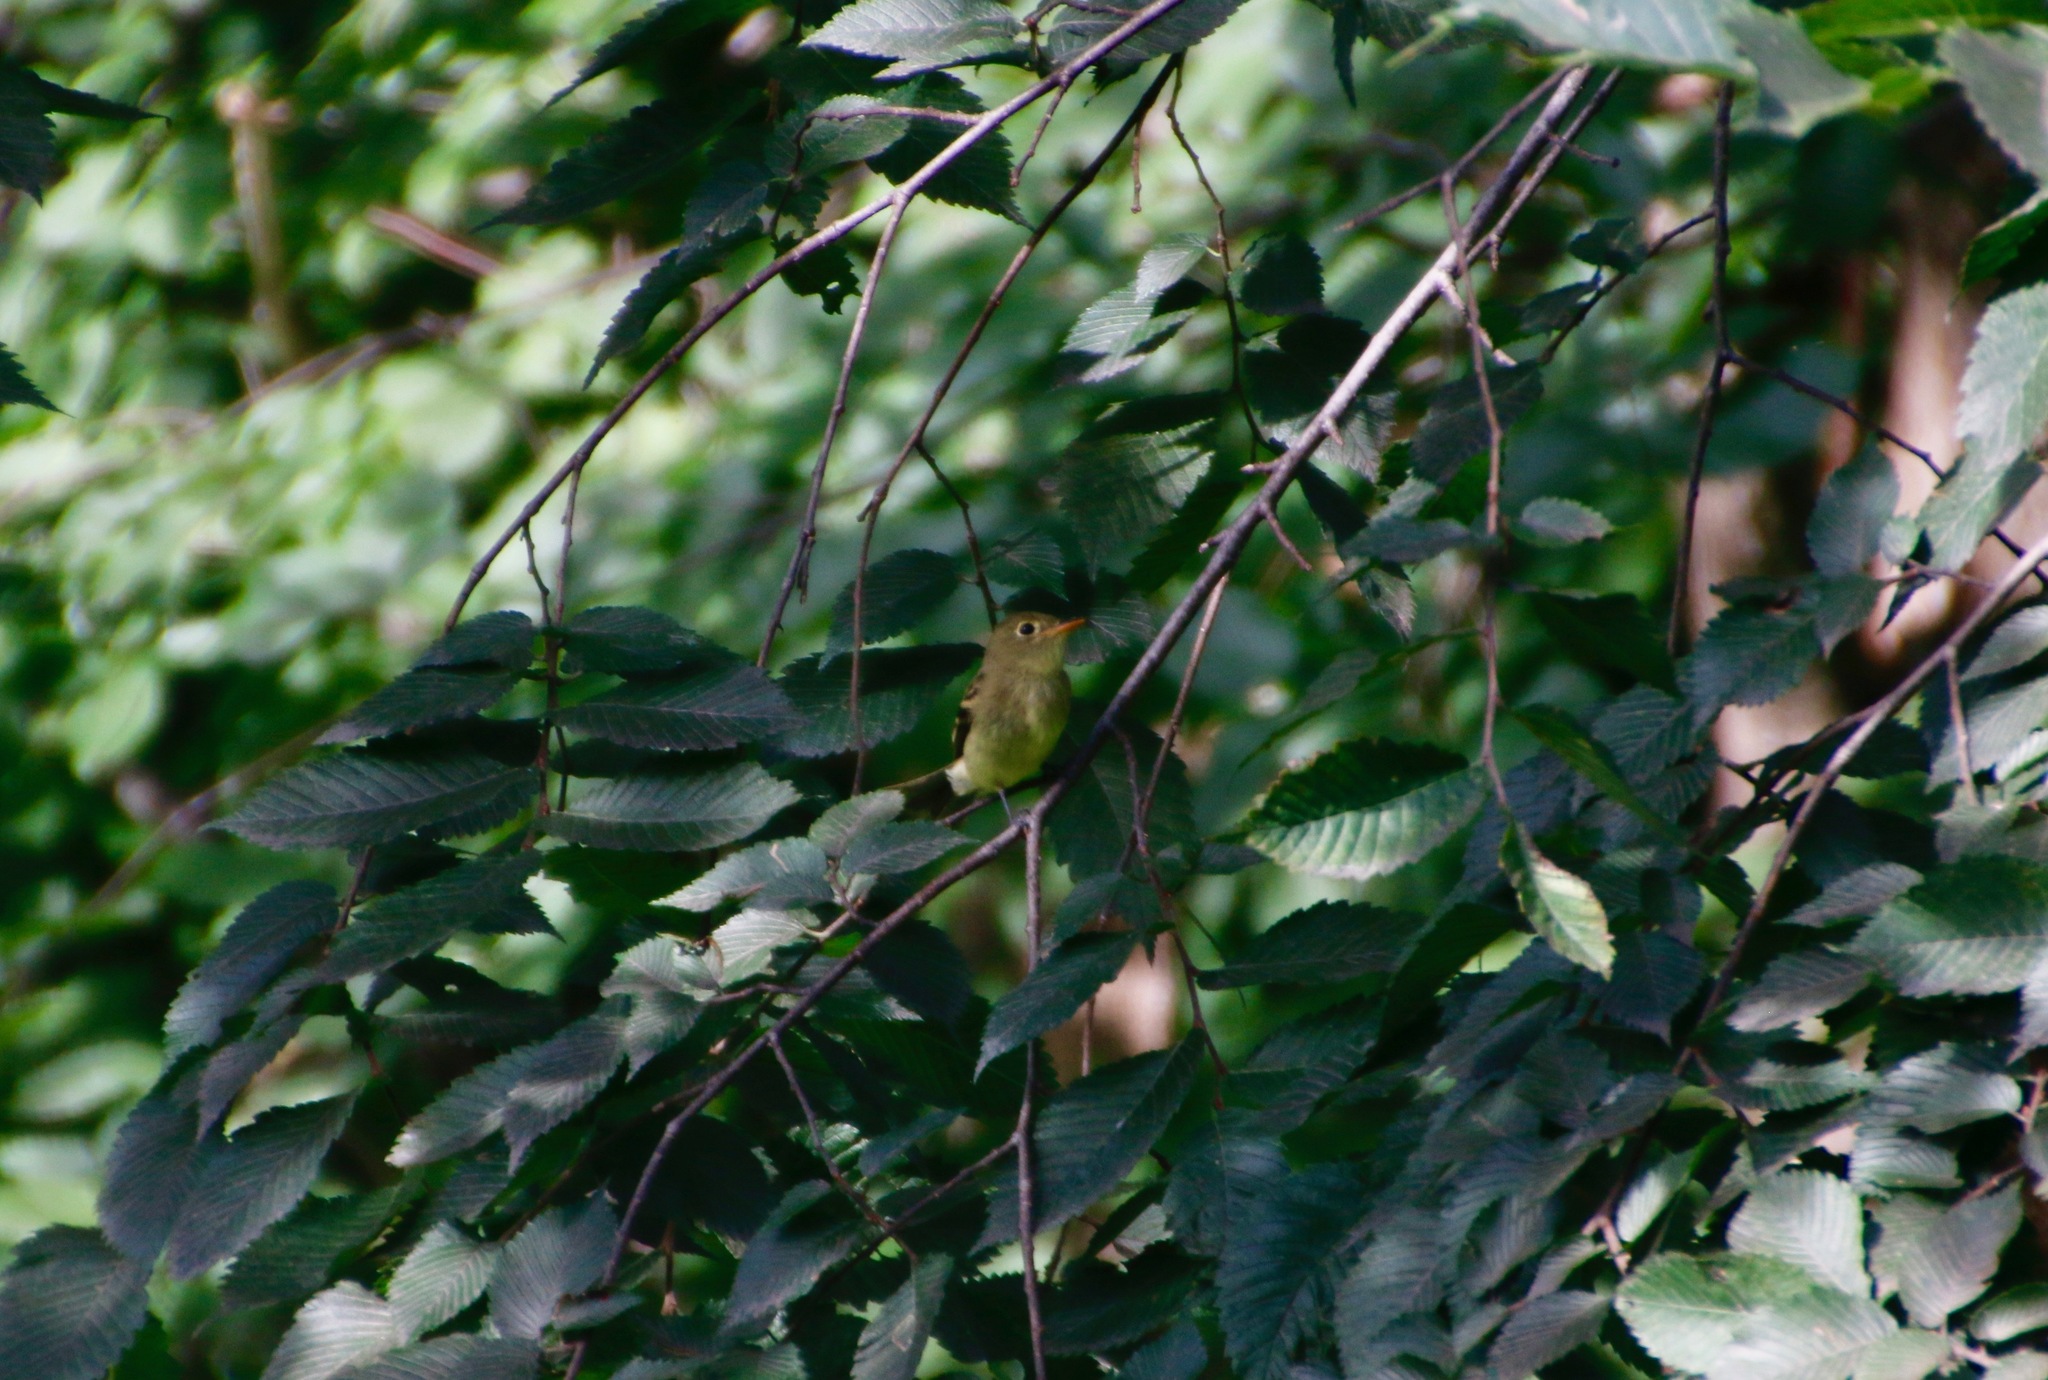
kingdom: Animalia
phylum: Chordata
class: Aves
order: Passeriformes
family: Tyrannidae
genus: Empidonax
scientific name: Empidonax flaviventris
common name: Yellow-bellied flycatcher
